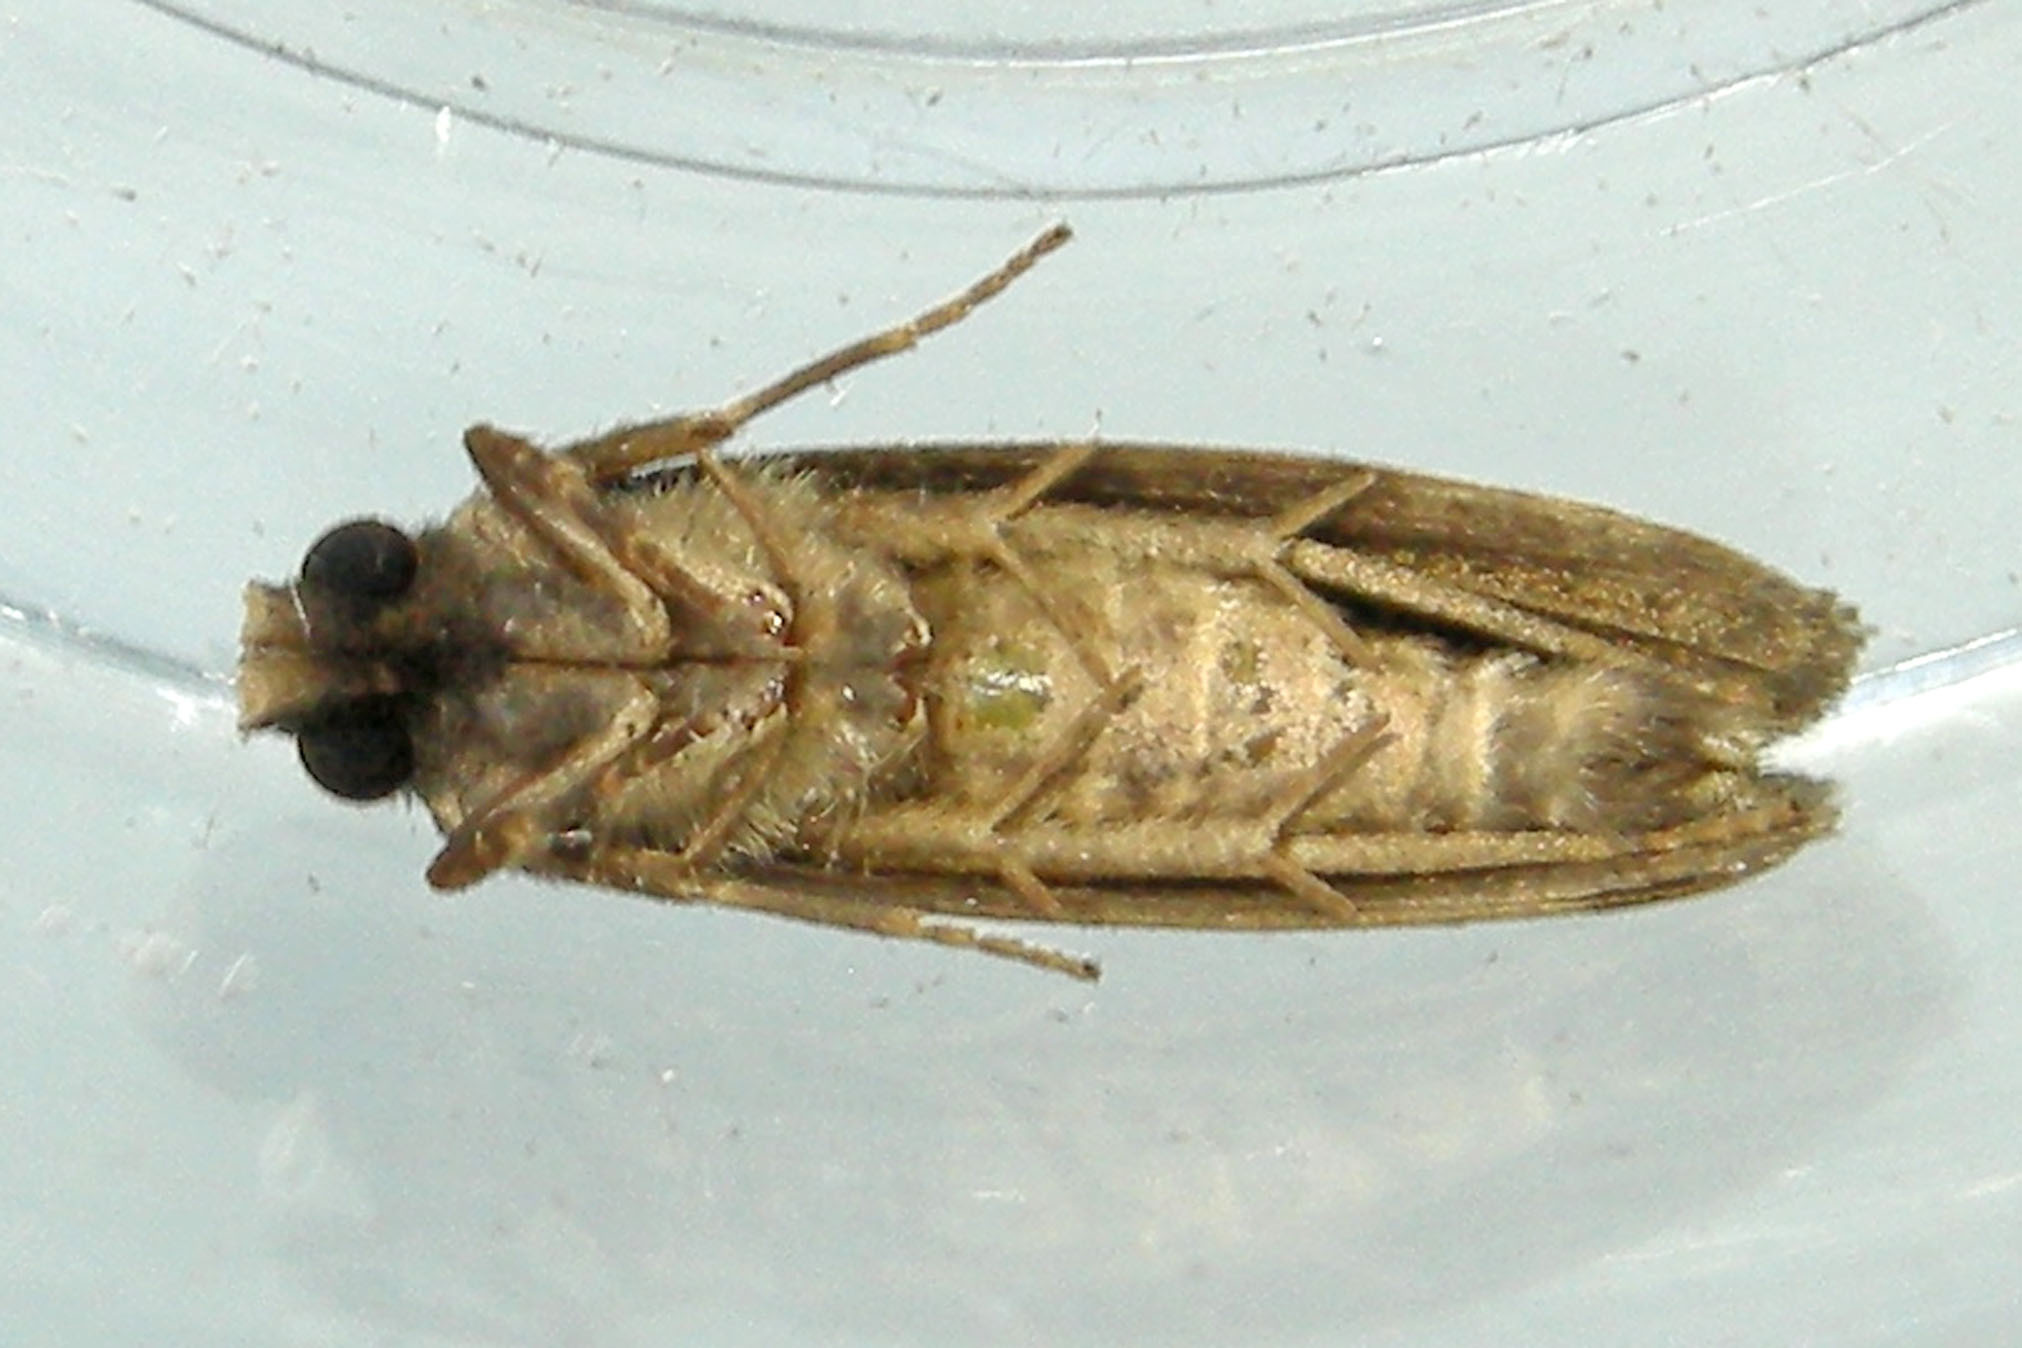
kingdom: Animalia
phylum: Arthropoda
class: Insecta
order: Lepidoptera
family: Tineidae
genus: Acrolophus
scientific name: Acrolophus popeanella
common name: Clemens' grass tubeworm moth
